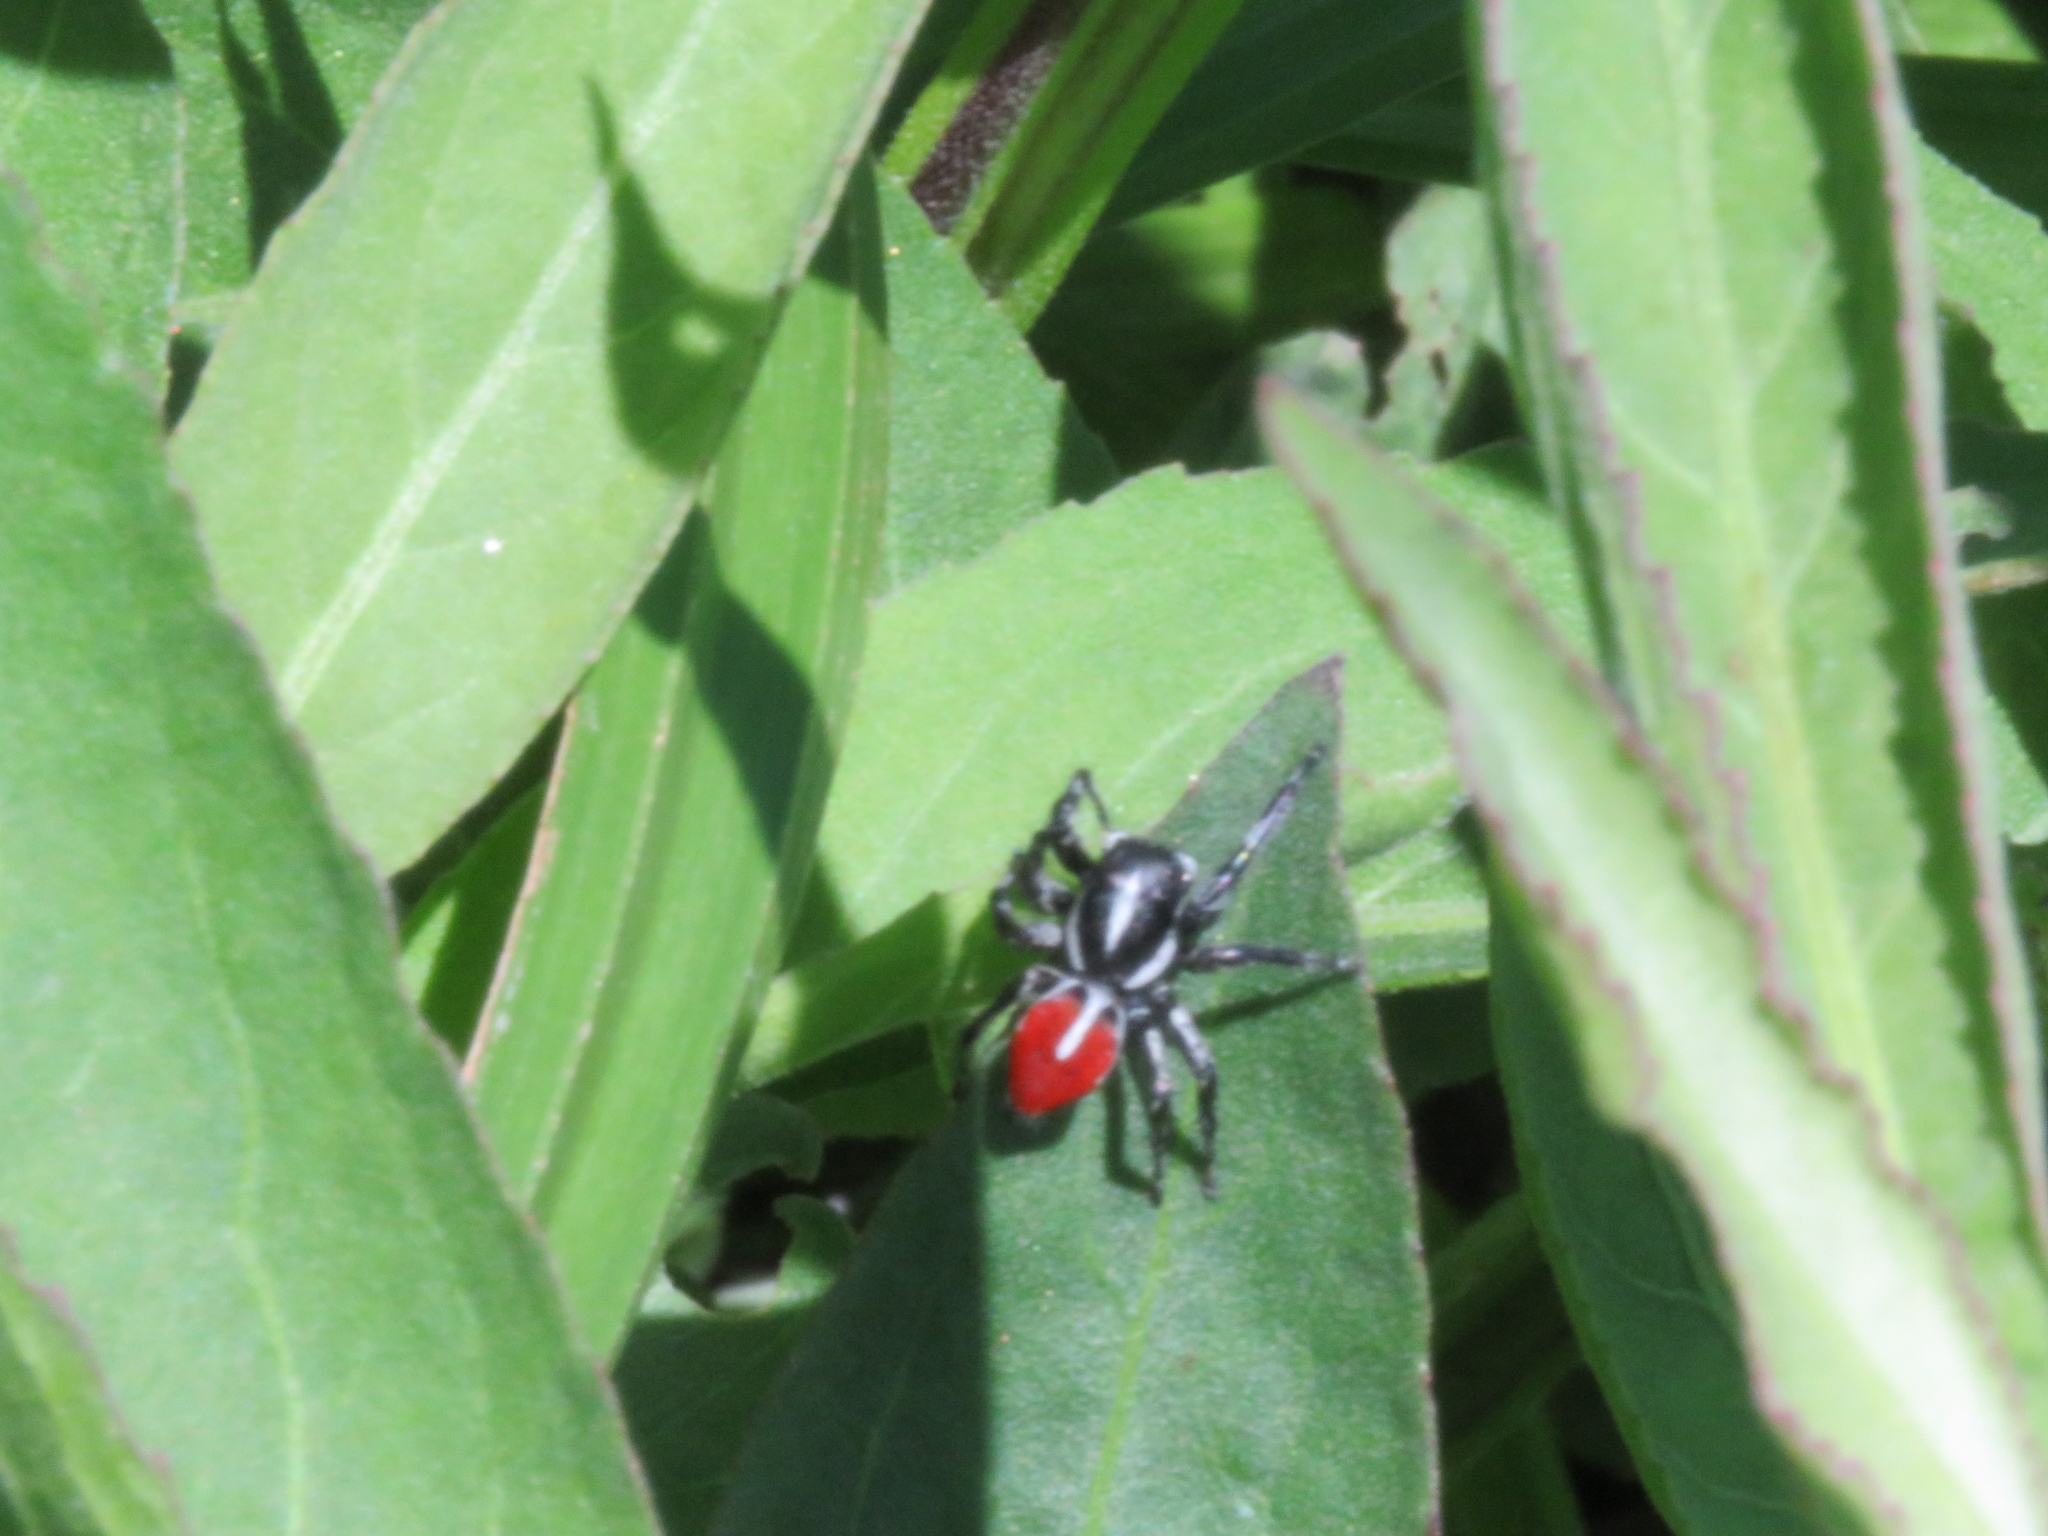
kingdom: Animalia
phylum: Arthropoda
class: Arachnida
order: Araneae
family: Salticidae
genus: Phiale
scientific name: Phiale gratiosa
